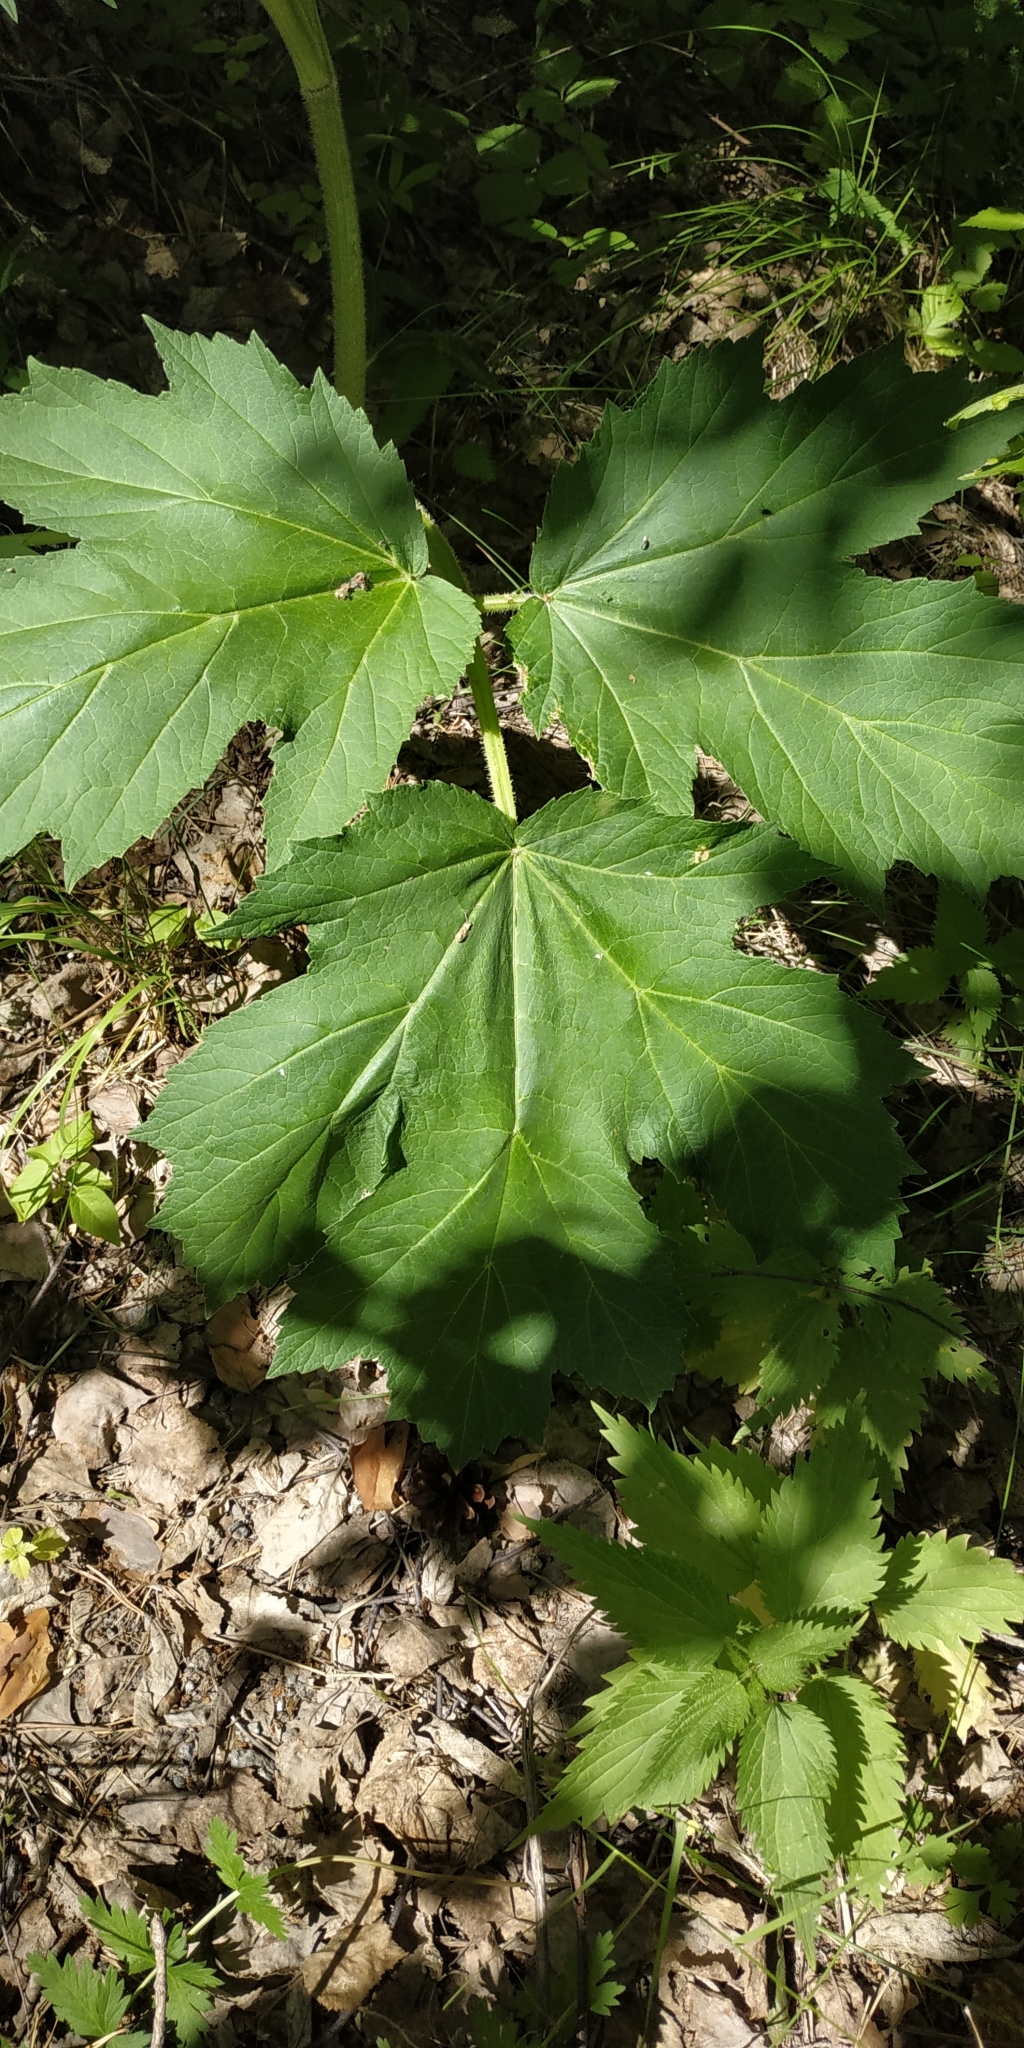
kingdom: Plantae
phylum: Tracheophyta
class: Magnoliopsida
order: Apiales
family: Apiaceae
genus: Heracleum
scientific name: Heracleum sphondylium
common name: Hogweed
